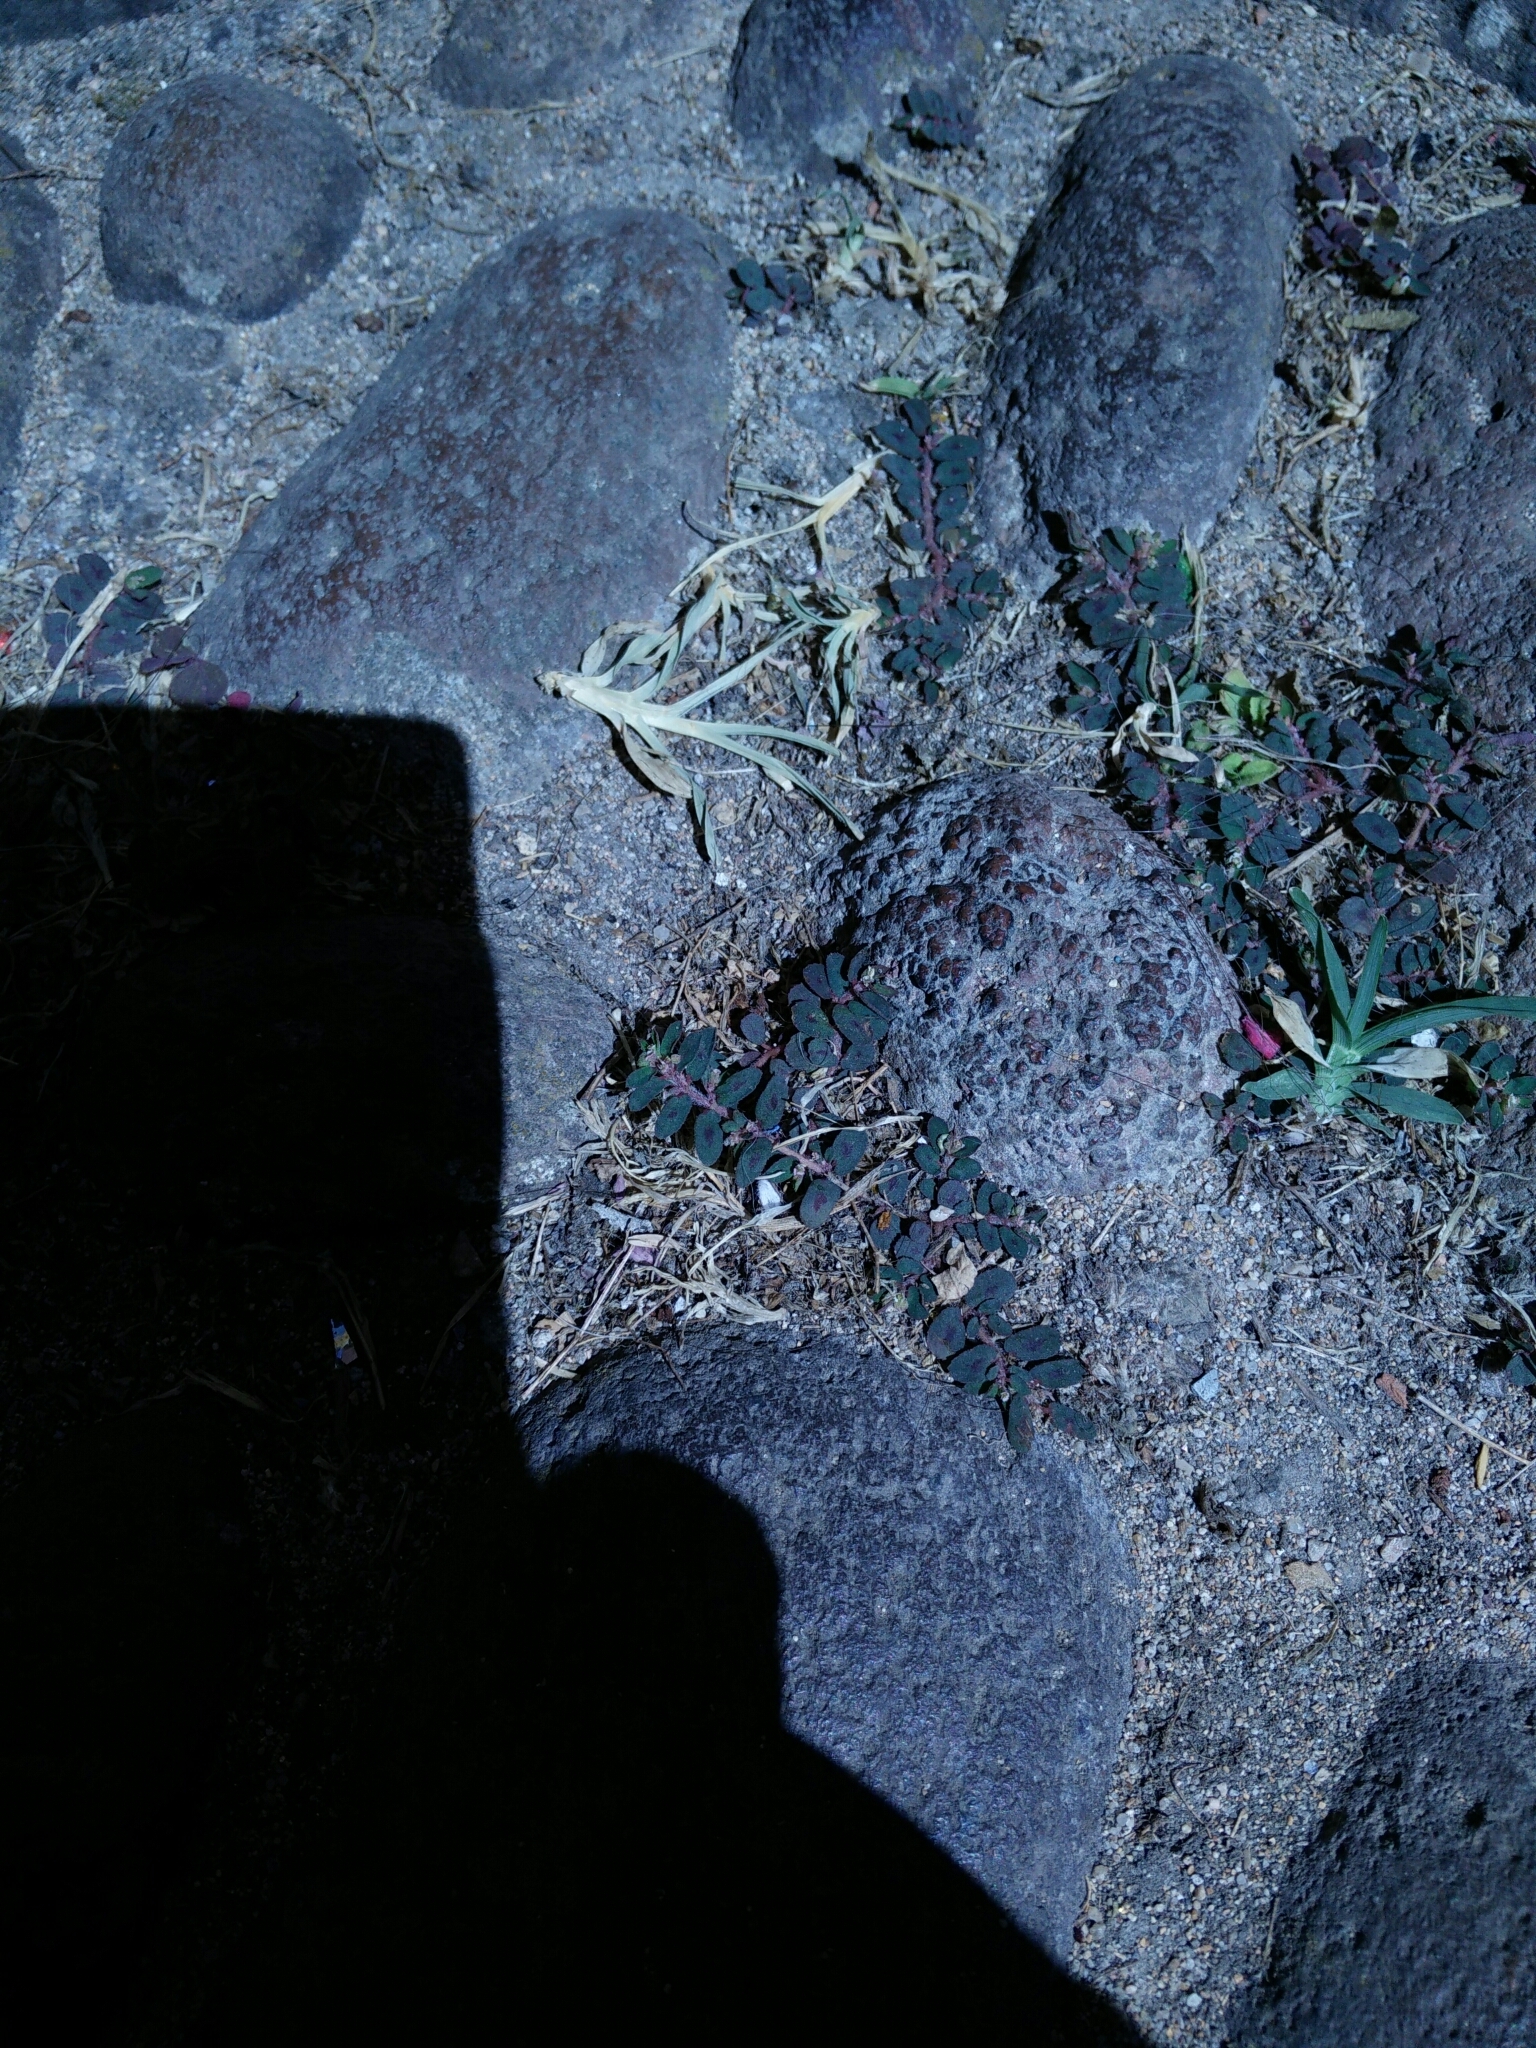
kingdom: Plantae
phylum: Tracheophyta
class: Magnoliopsida
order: Malpighiales
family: Euphorbiaceae
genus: Euphorbia
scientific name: Euphorbia maculata
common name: Spotted spurge
